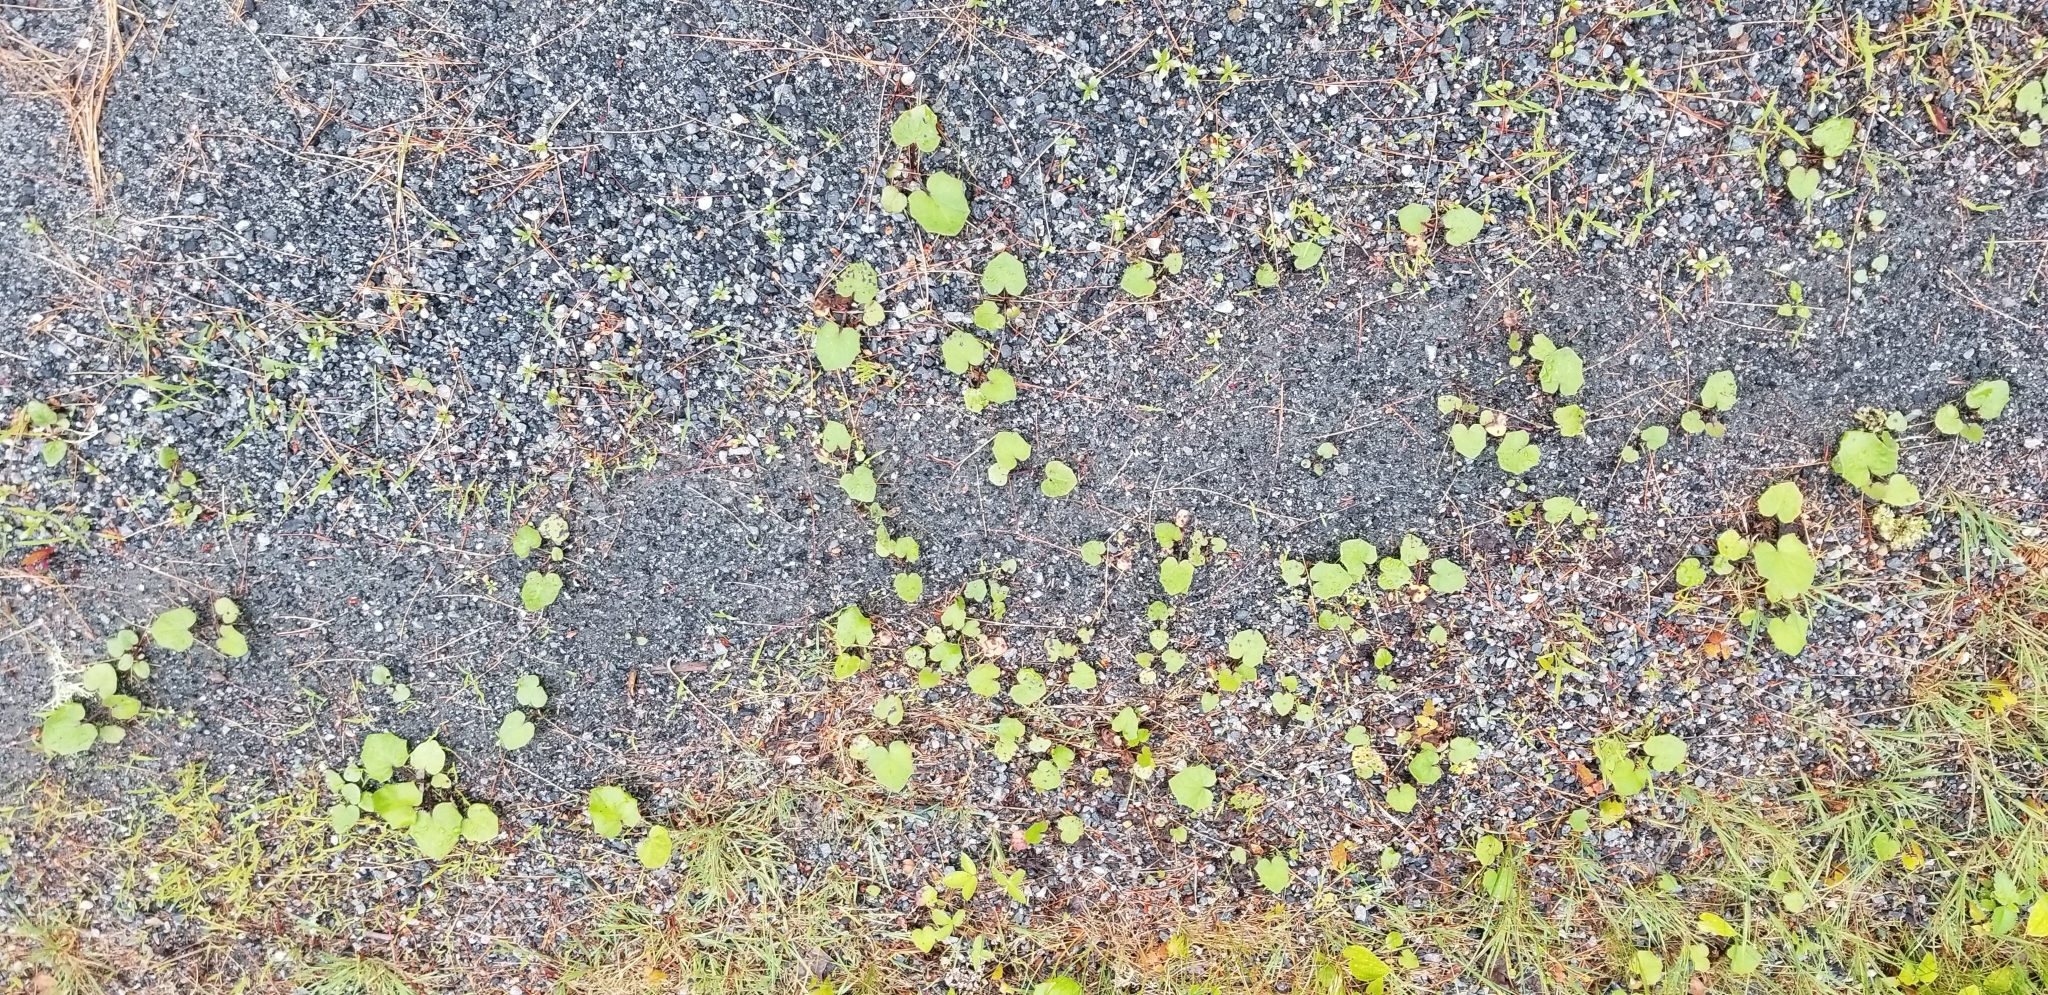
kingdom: Plantae
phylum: Tracheophyta
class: Magnoliopsida
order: Asterales
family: Asteraceae
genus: Tussilago
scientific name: Tussilago farfara
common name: Coltsfoot
